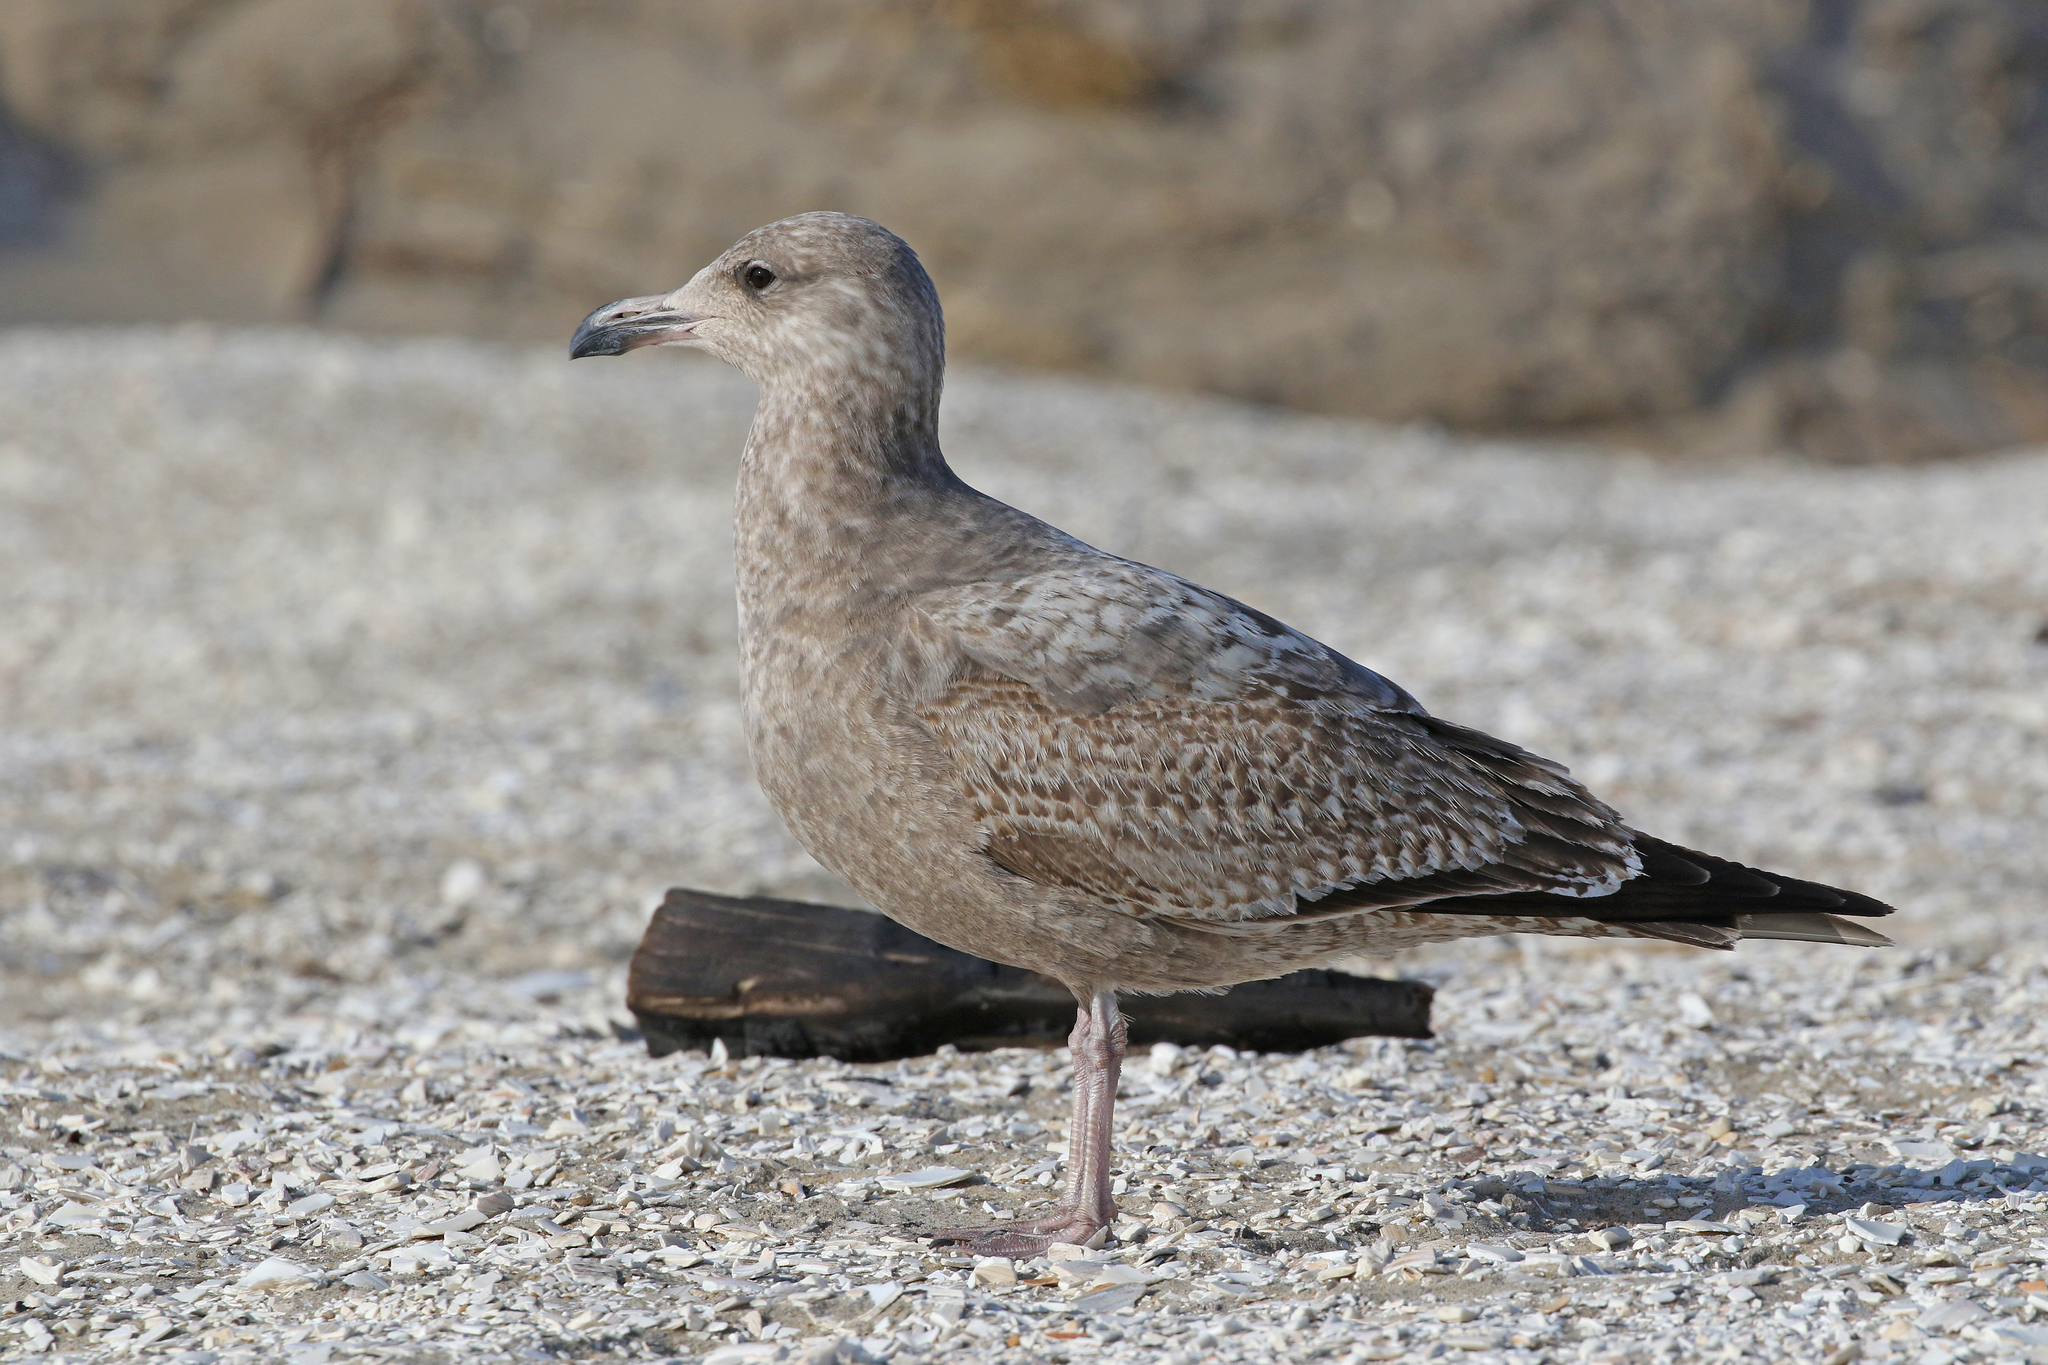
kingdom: Animalia
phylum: Chordata
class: Aves
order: Charadriiformes
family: Laridae
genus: Larus
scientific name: Larus argentatus
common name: Herring gull
